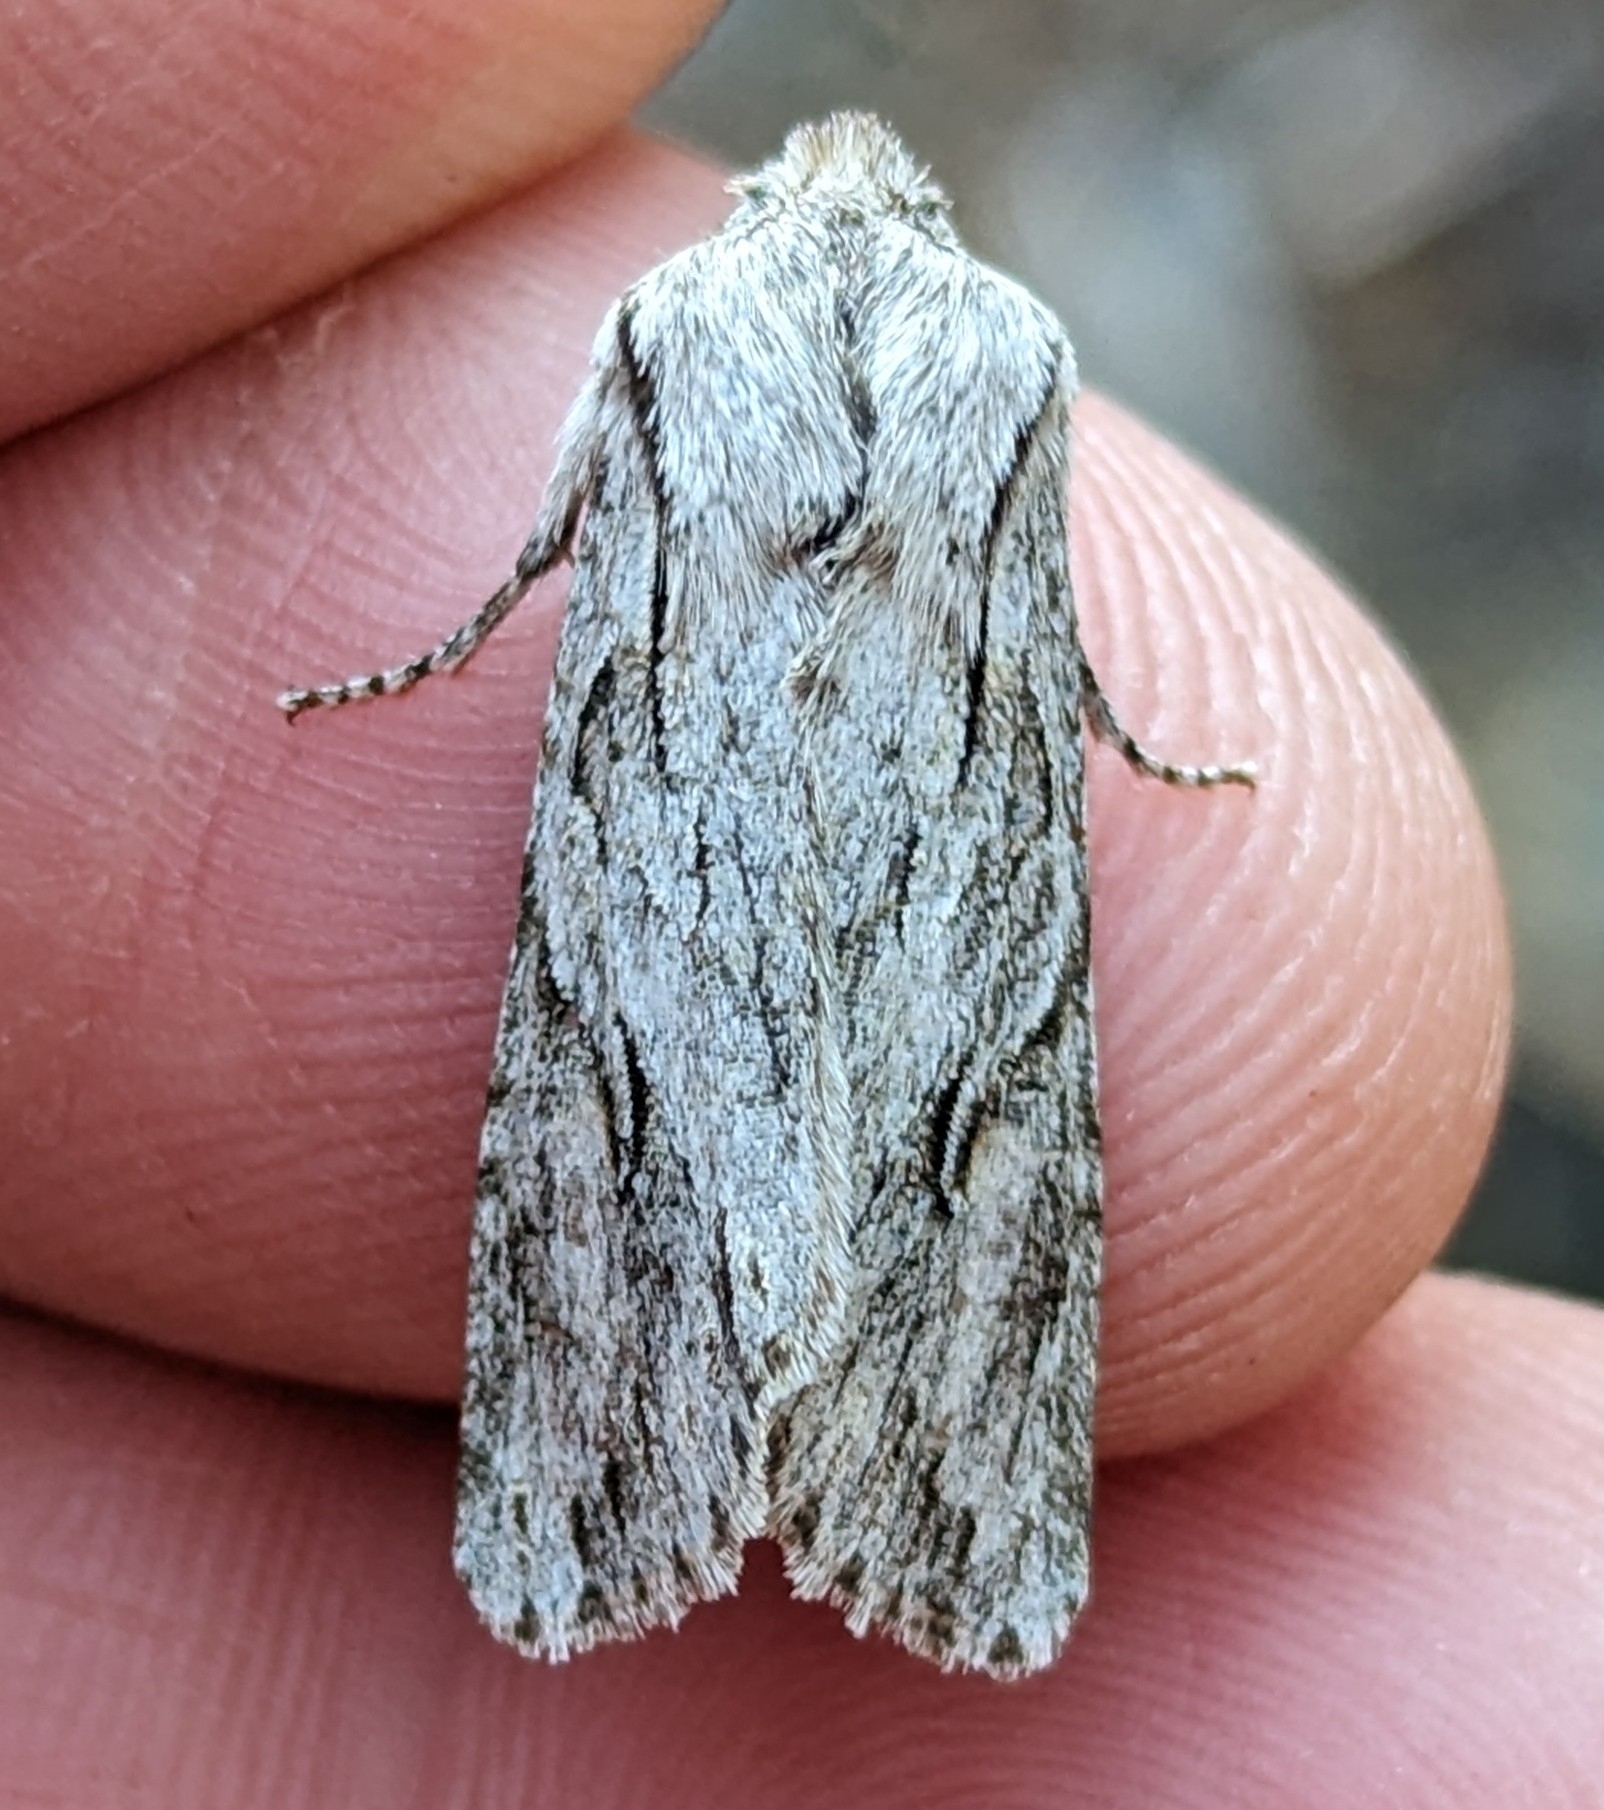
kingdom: Animalia
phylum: Arthropoda
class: Insecta
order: Lepidoptera
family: Noctuidae
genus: Egira
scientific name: Egira crucialis
